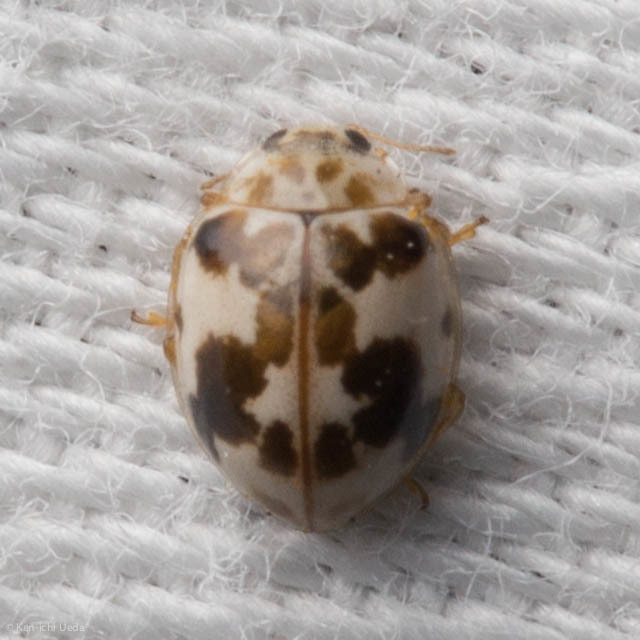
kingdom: Animalia
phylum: Arthropoda
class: Insecta
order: Coleoptera
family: Coccinellidae
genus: Psyllobora
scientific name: Psyllobora borealis
